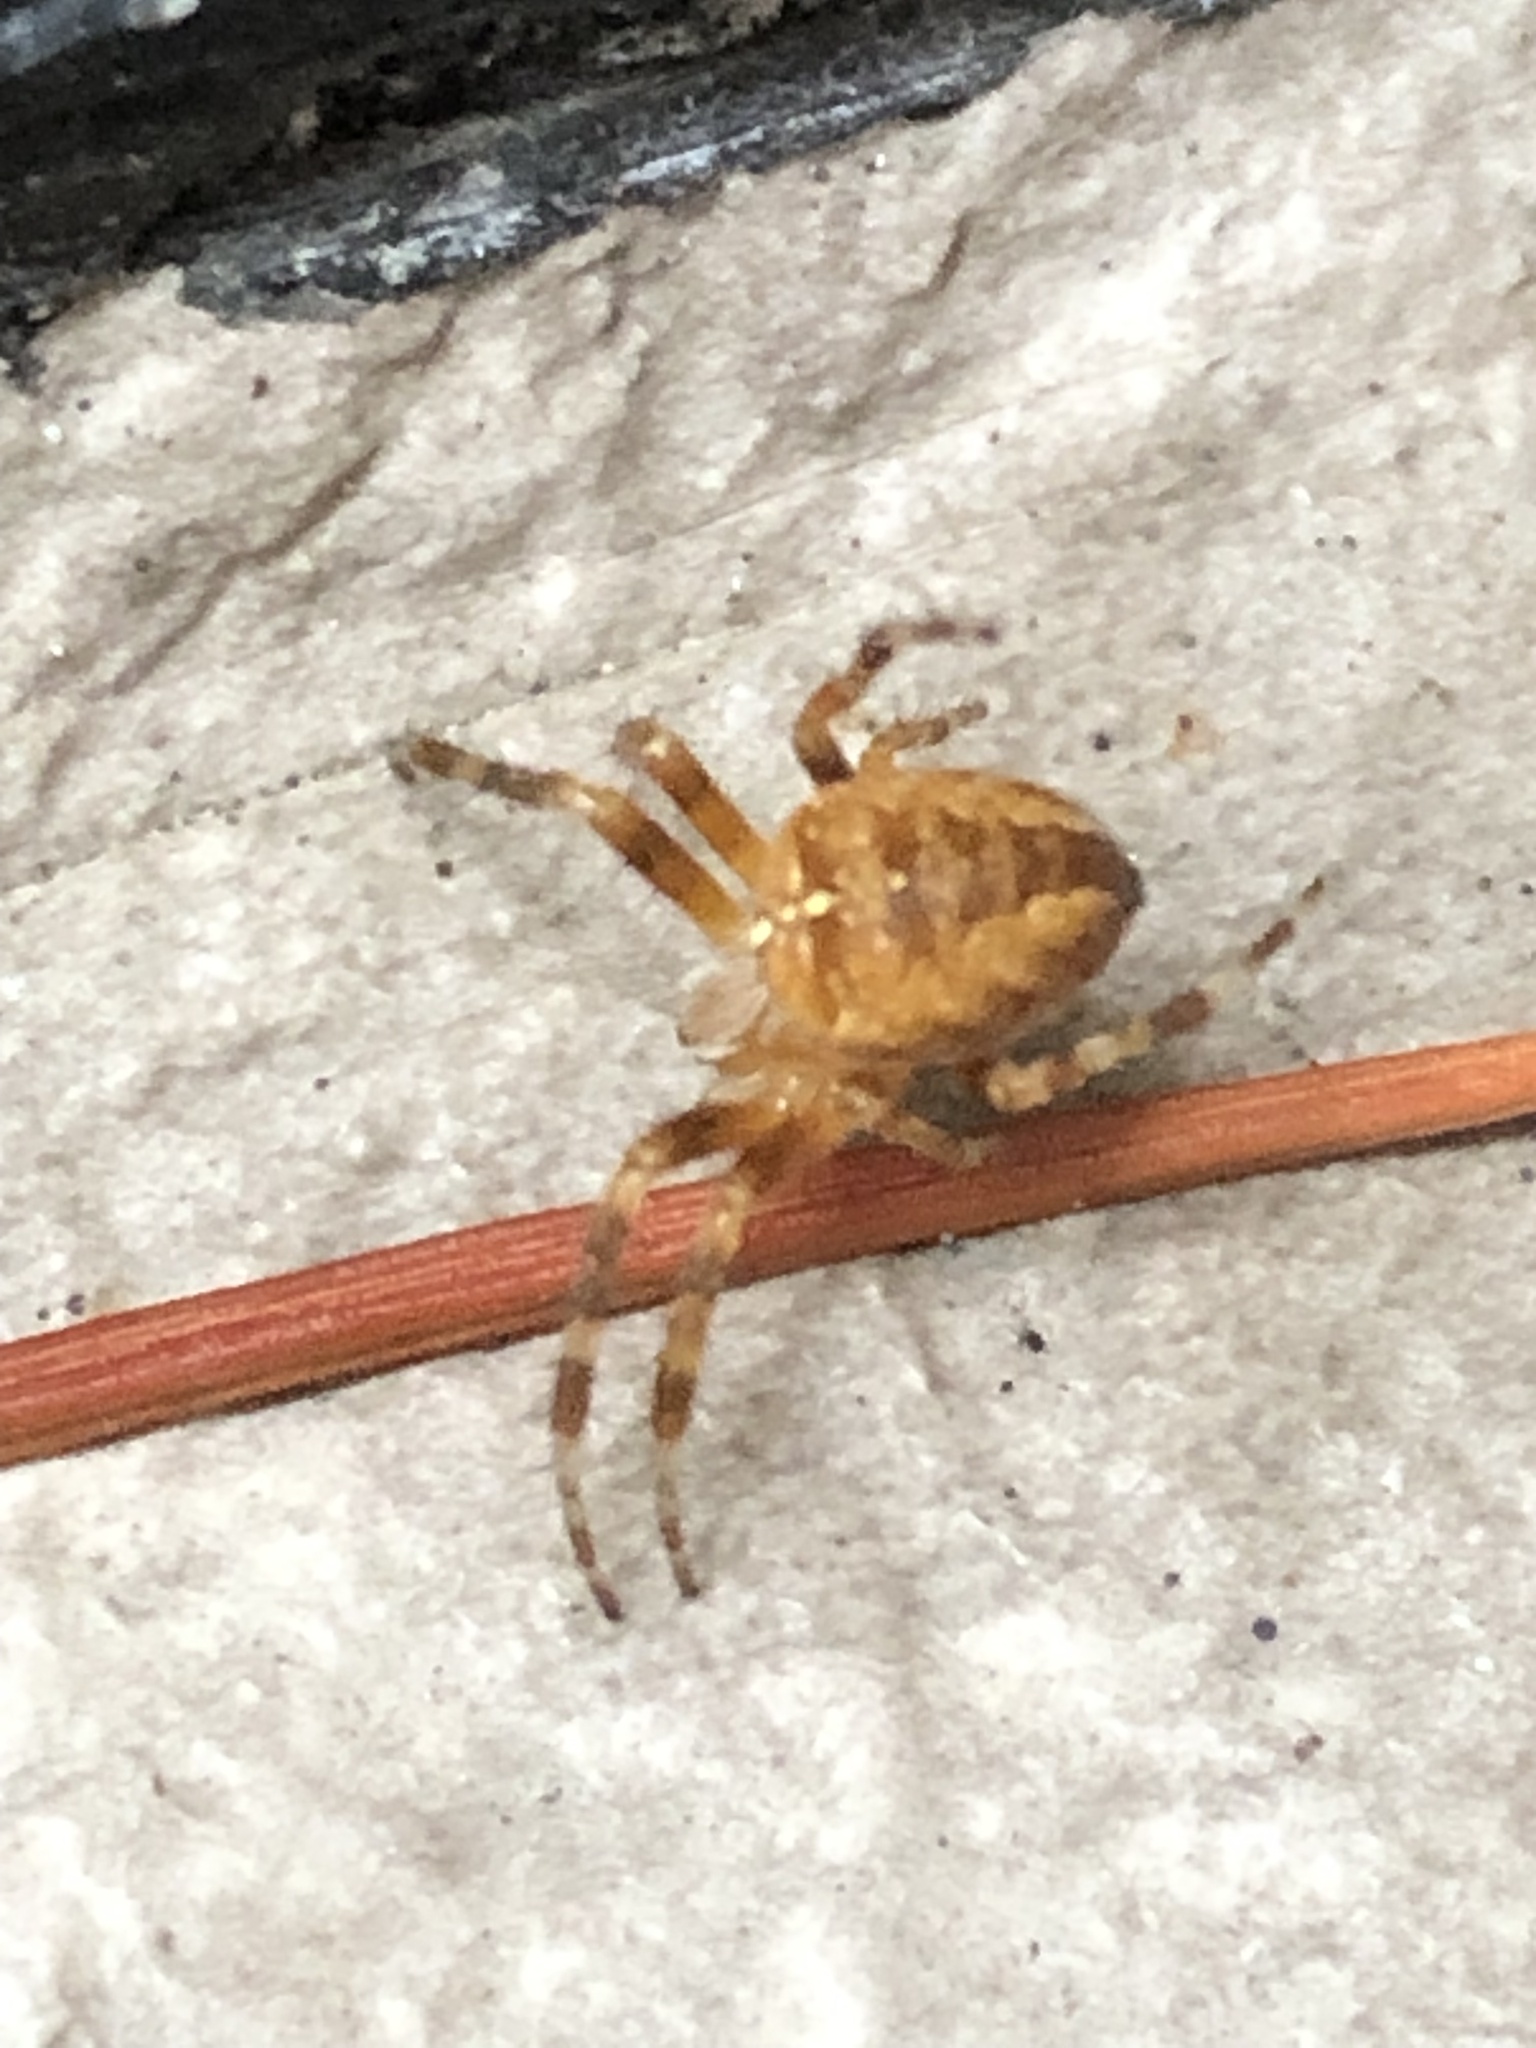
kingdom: Animalia
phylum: Arthropoda
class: Arachnida
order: Araneae
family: Araneidae
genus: Araneus
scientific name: Araneus diadematus
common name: Cross orbweaver
